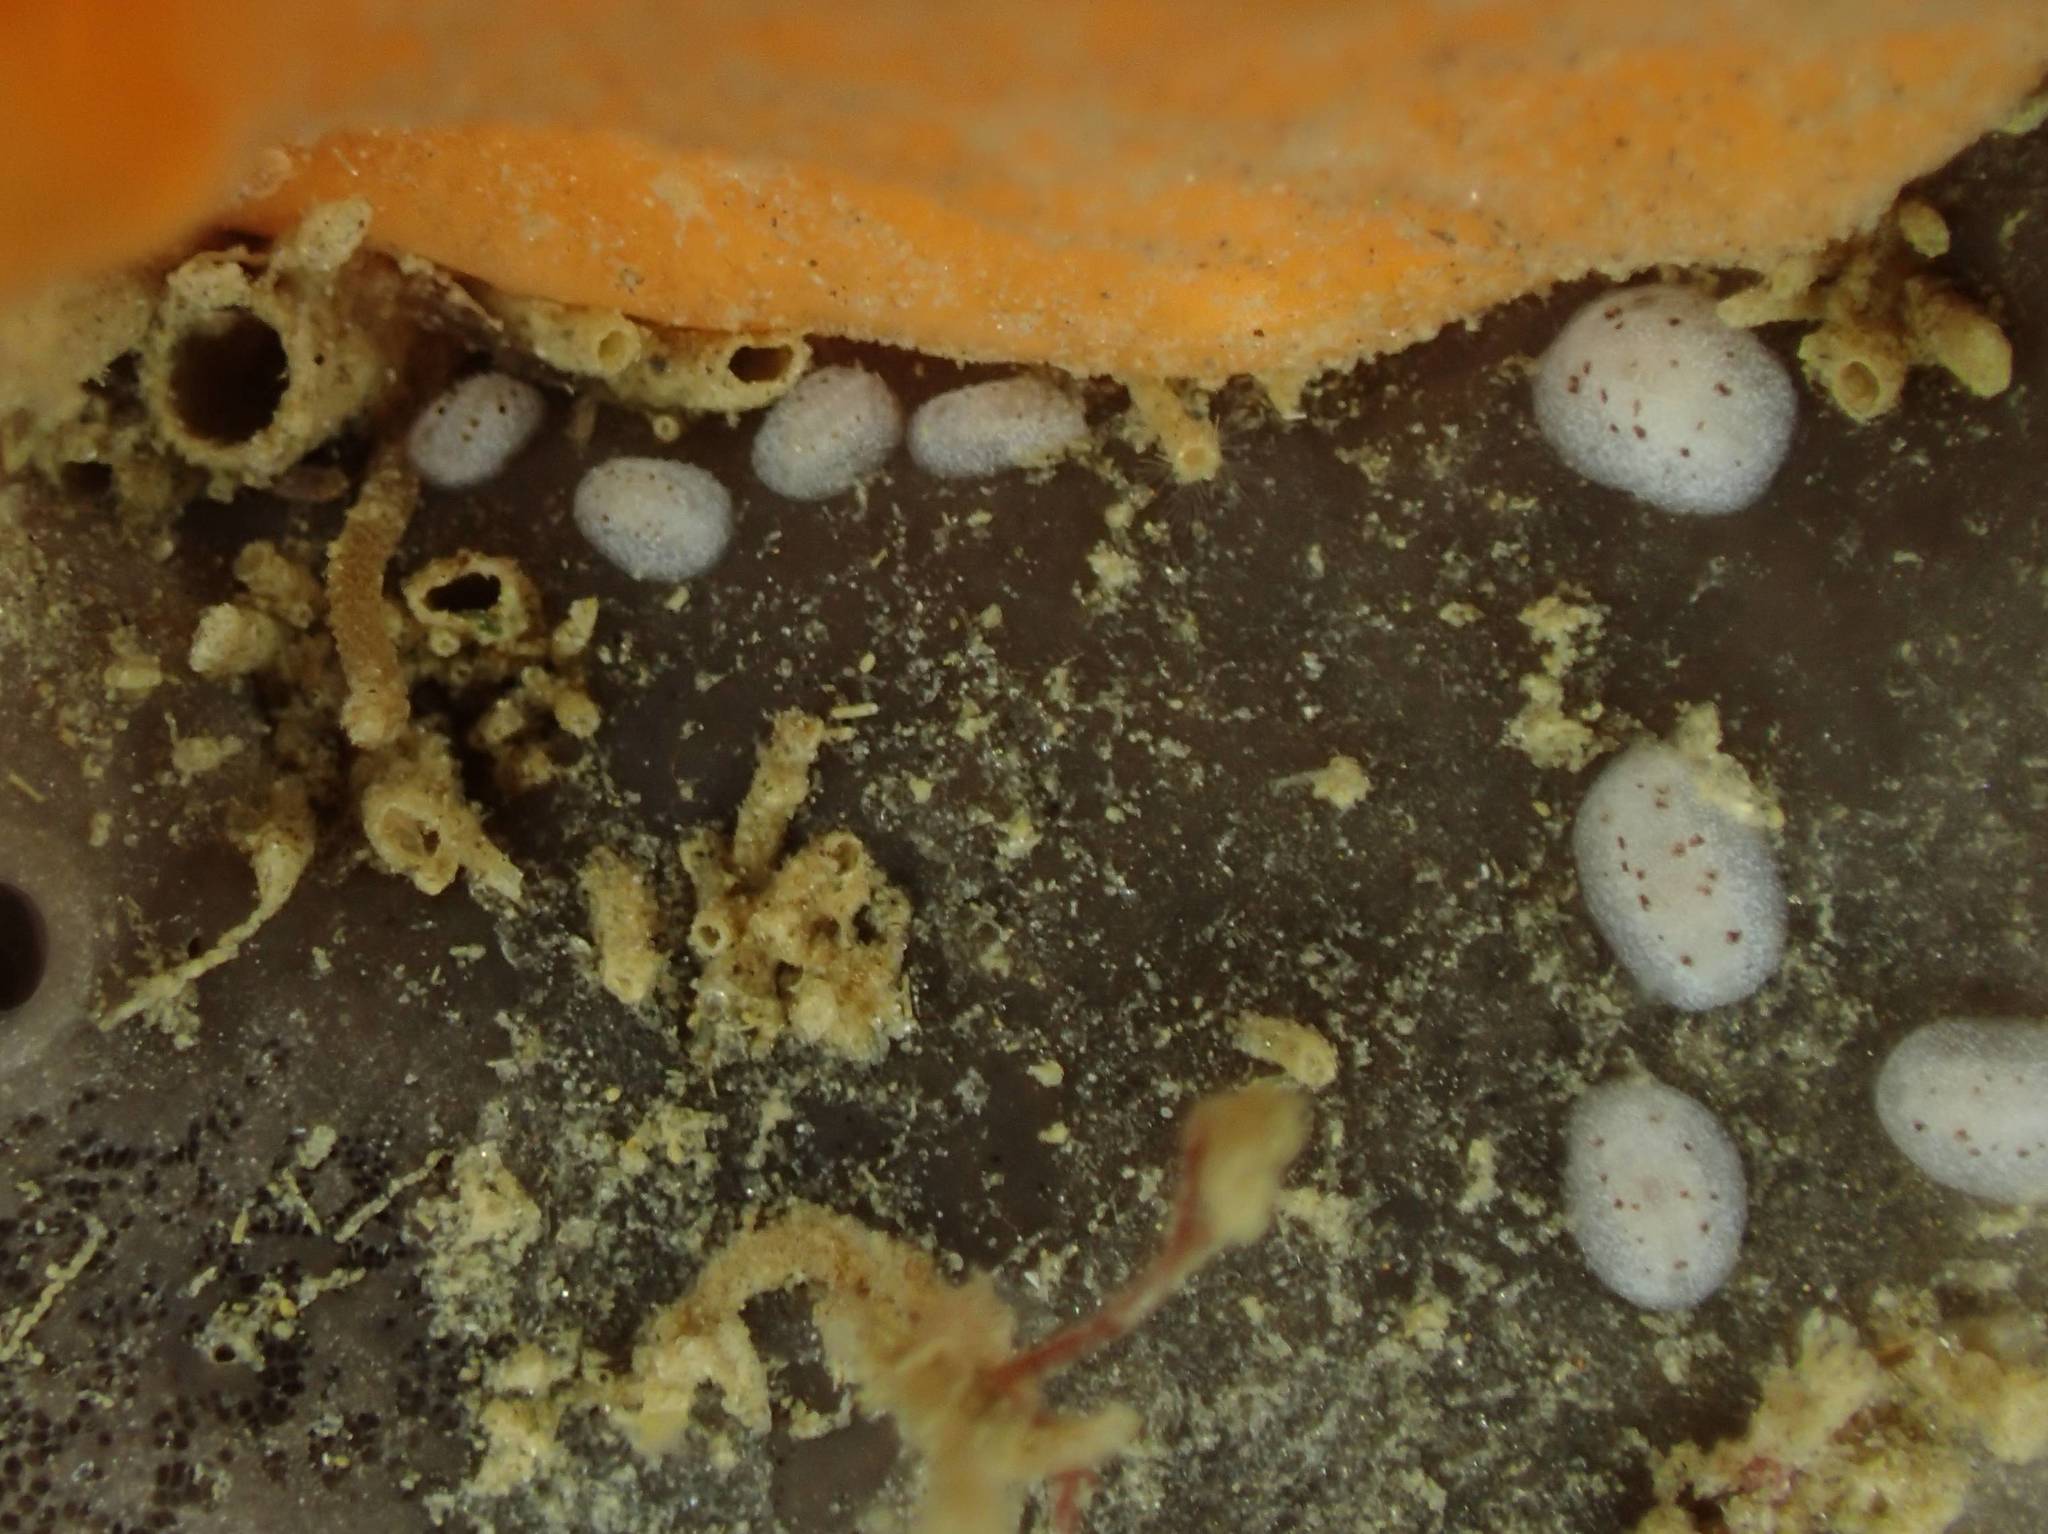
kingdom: Animalia
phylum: Mollusca
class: Gastropoda
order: Nudibranchia
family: Discodorididae
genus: Paradoris
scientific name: Paradoris dubia
